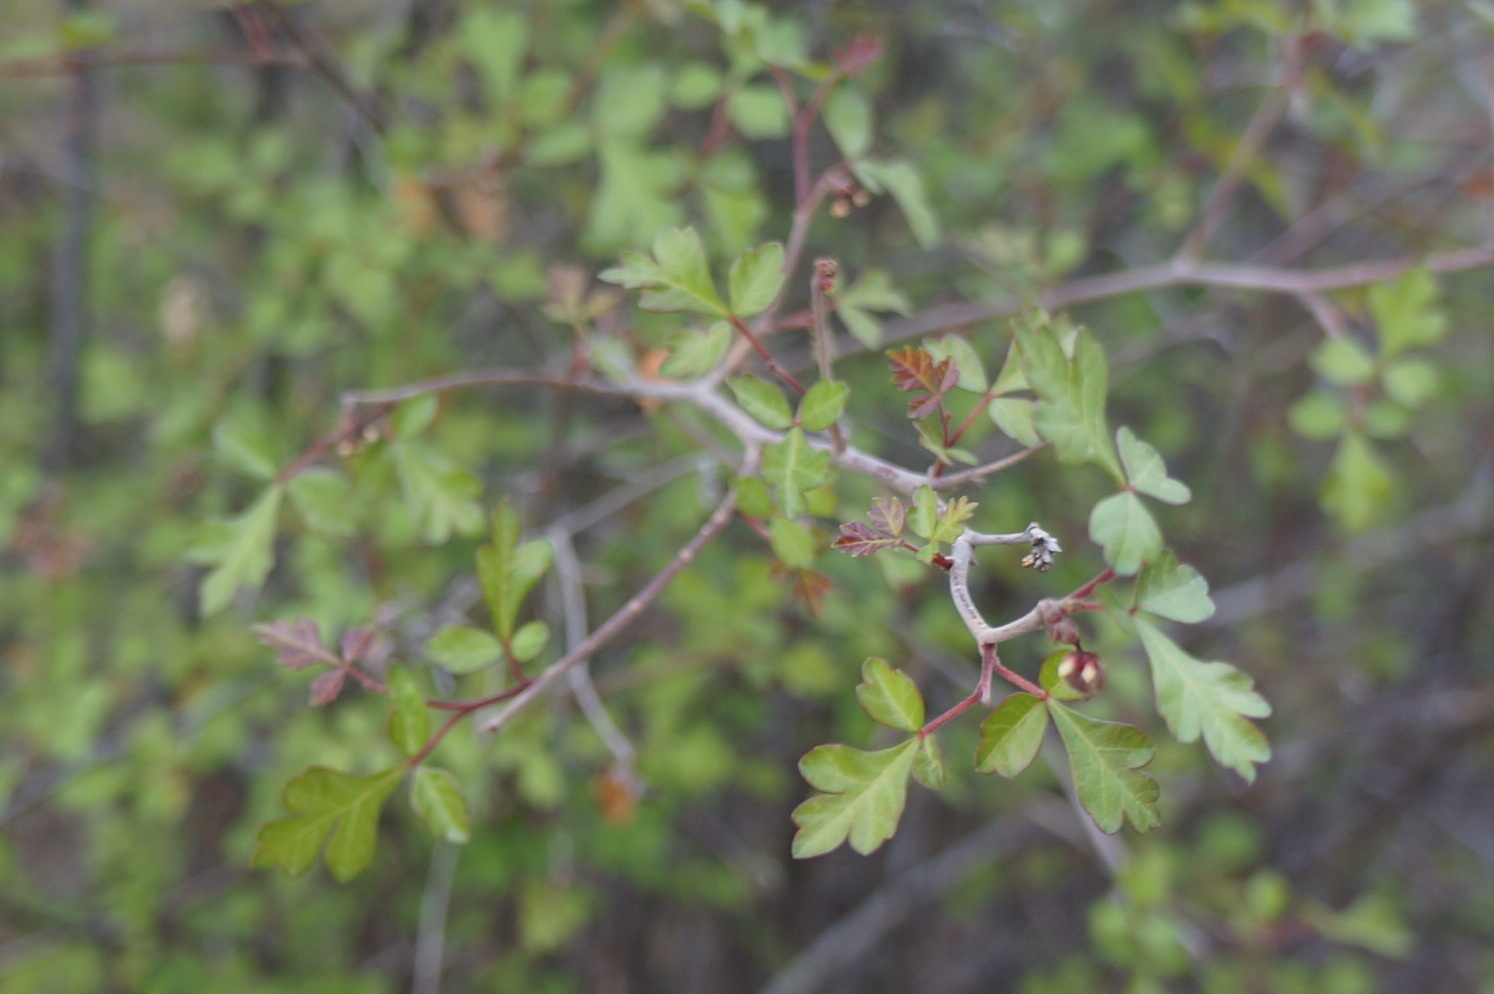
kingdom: Plantae
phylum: Tracheophyta
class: Magnoliopsida
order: Sapindales
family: Anacardiaceae
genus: Rhus
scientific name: Rhus aromatica
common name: Aromatic sumac
